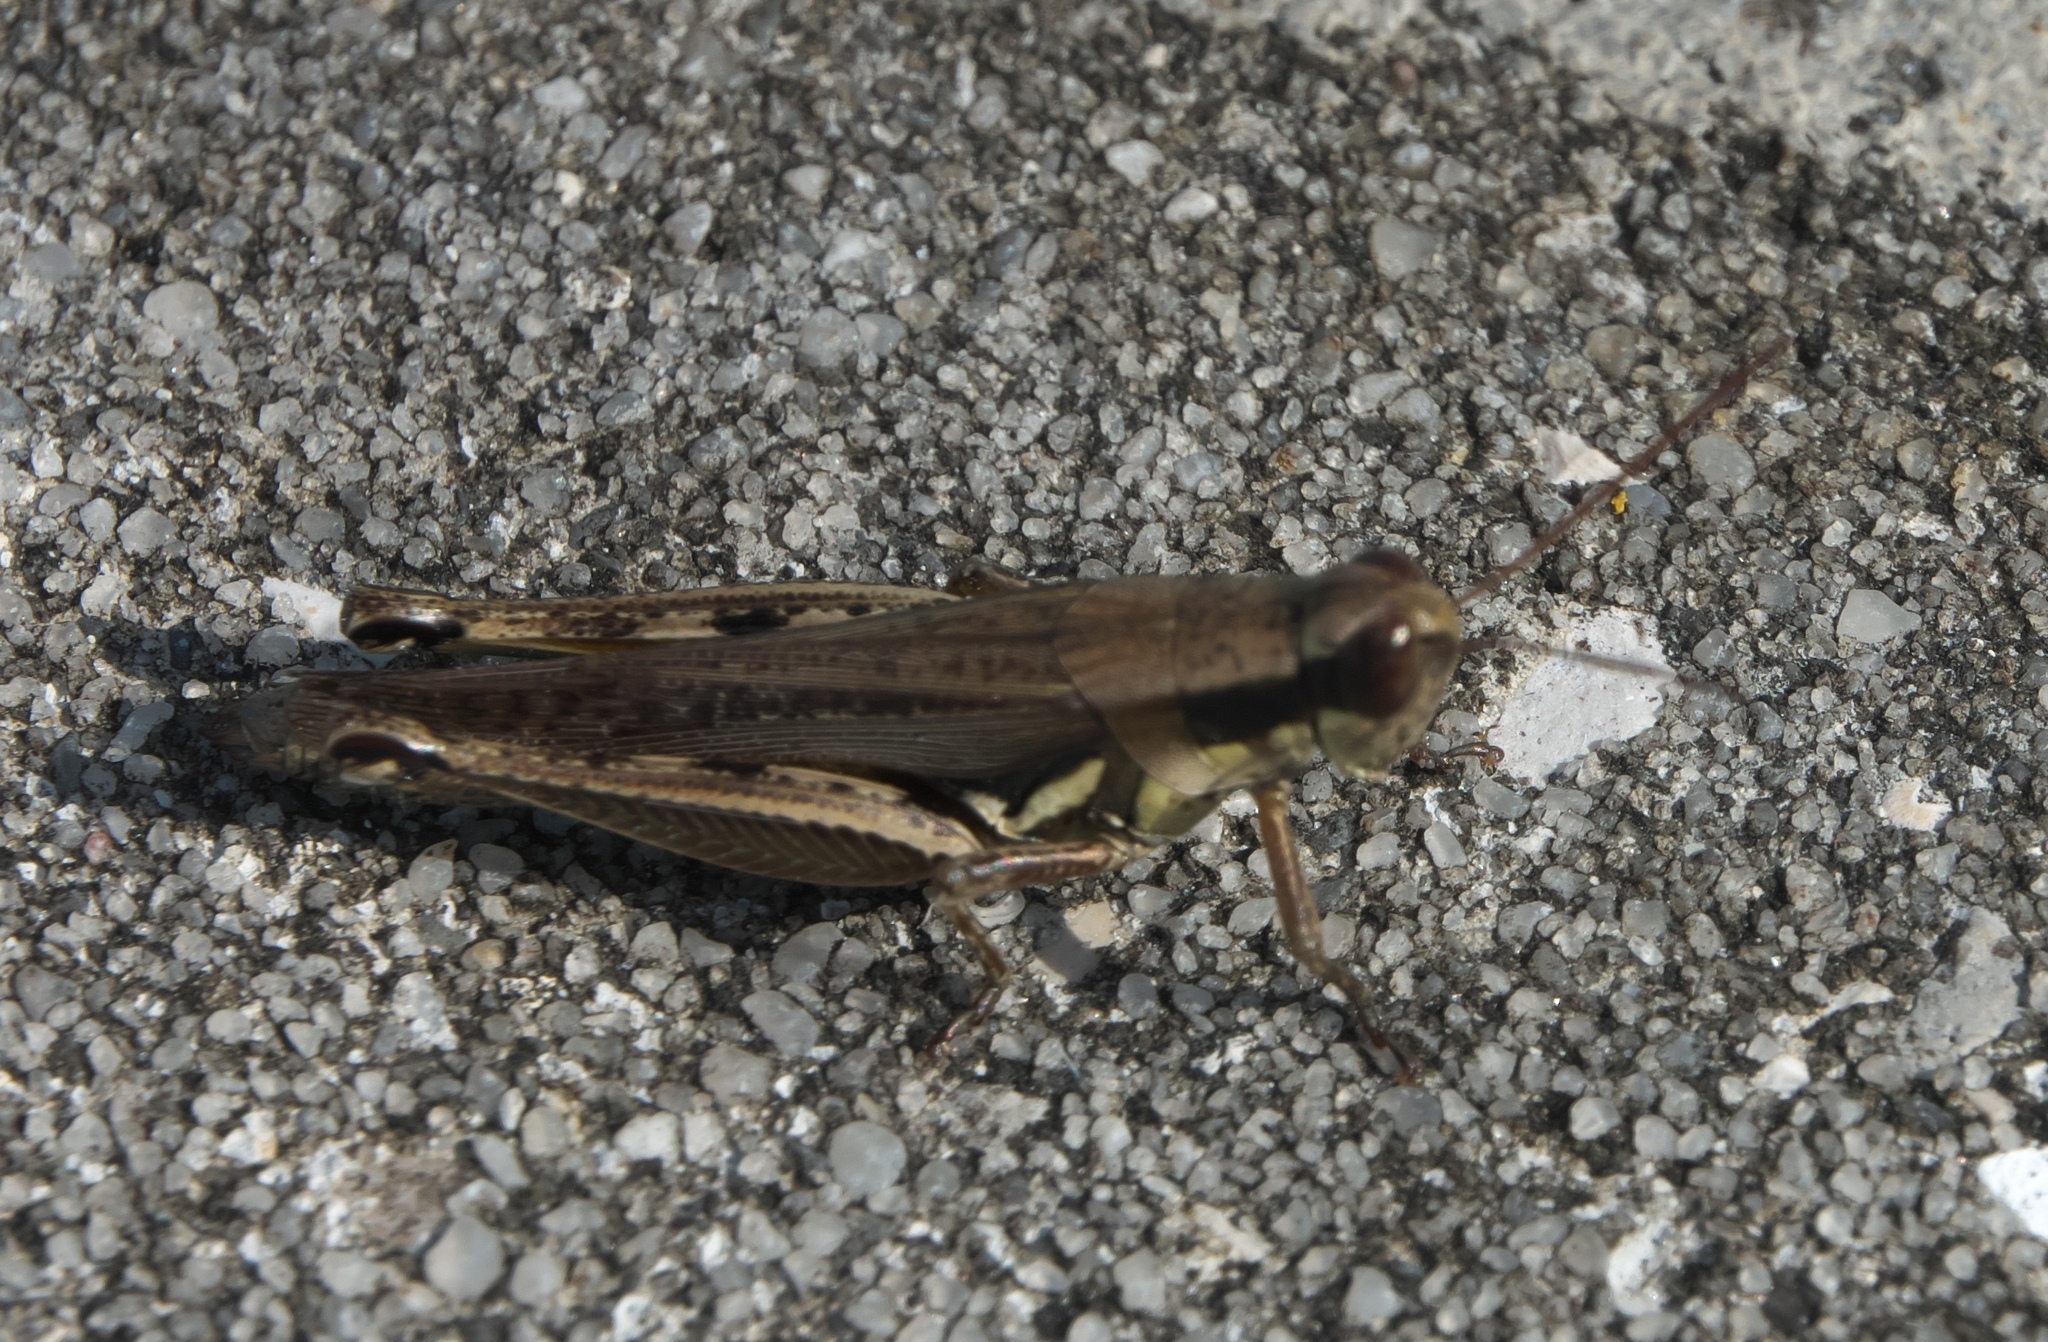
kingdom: Animalia
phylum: Arthropoda
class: Insecta
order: Orthoptera
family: Acrididae
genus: Paroxya
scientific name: Paroxya atlantica
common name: Atlantic grasshopper
